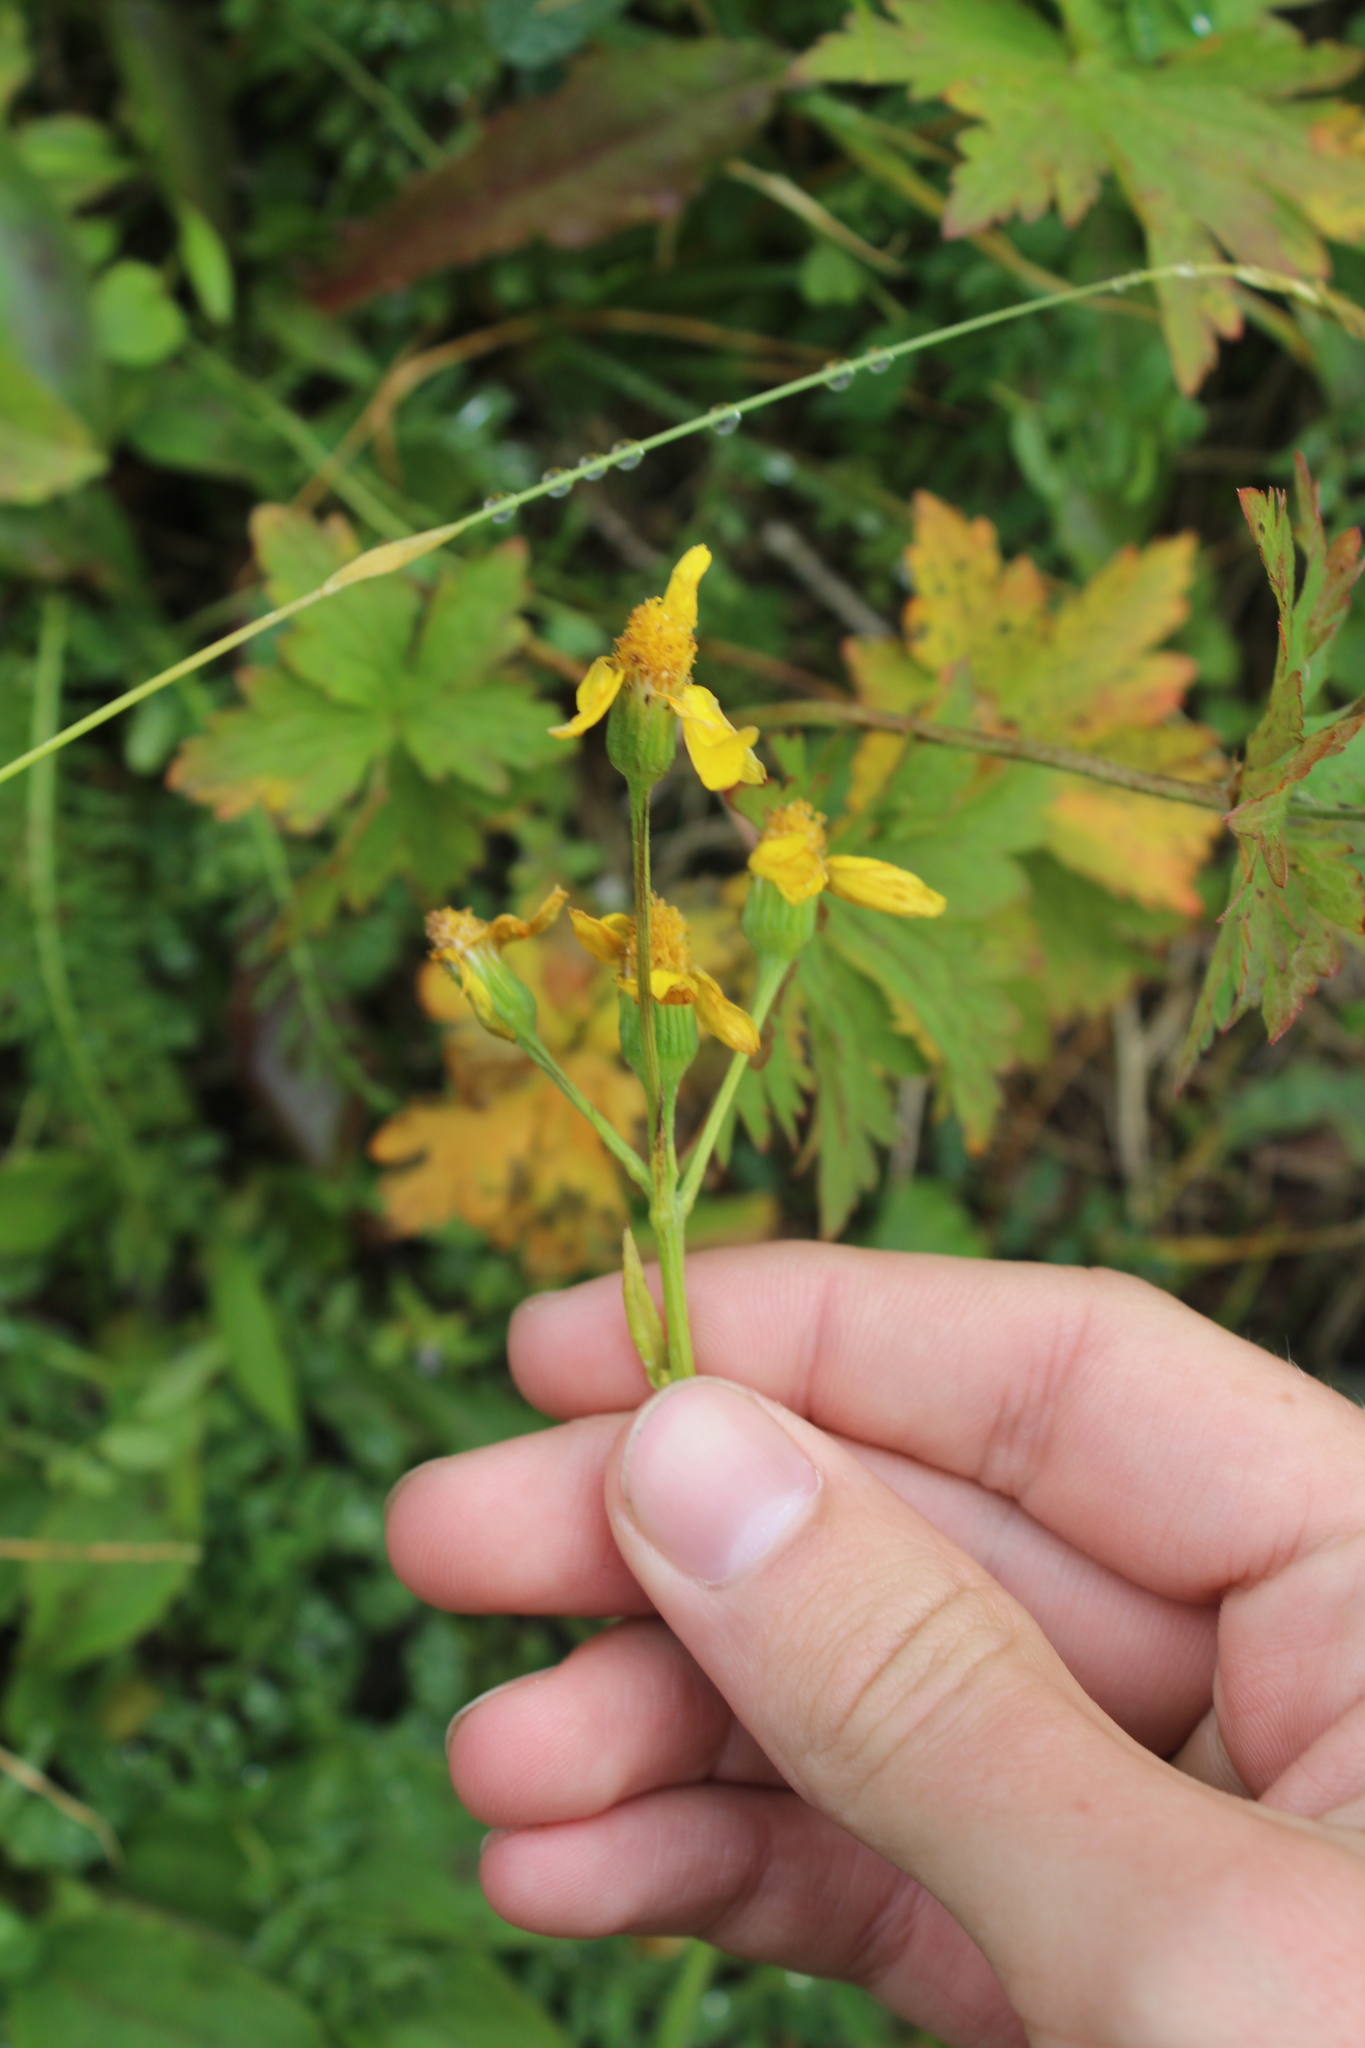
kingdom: Plantae
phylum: Tracheophyta
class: Magnoliopsida
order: Asterales
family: Asteraceae
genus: Tephroseris
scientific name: Tephroseris integrifolia
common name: Field fleawort
